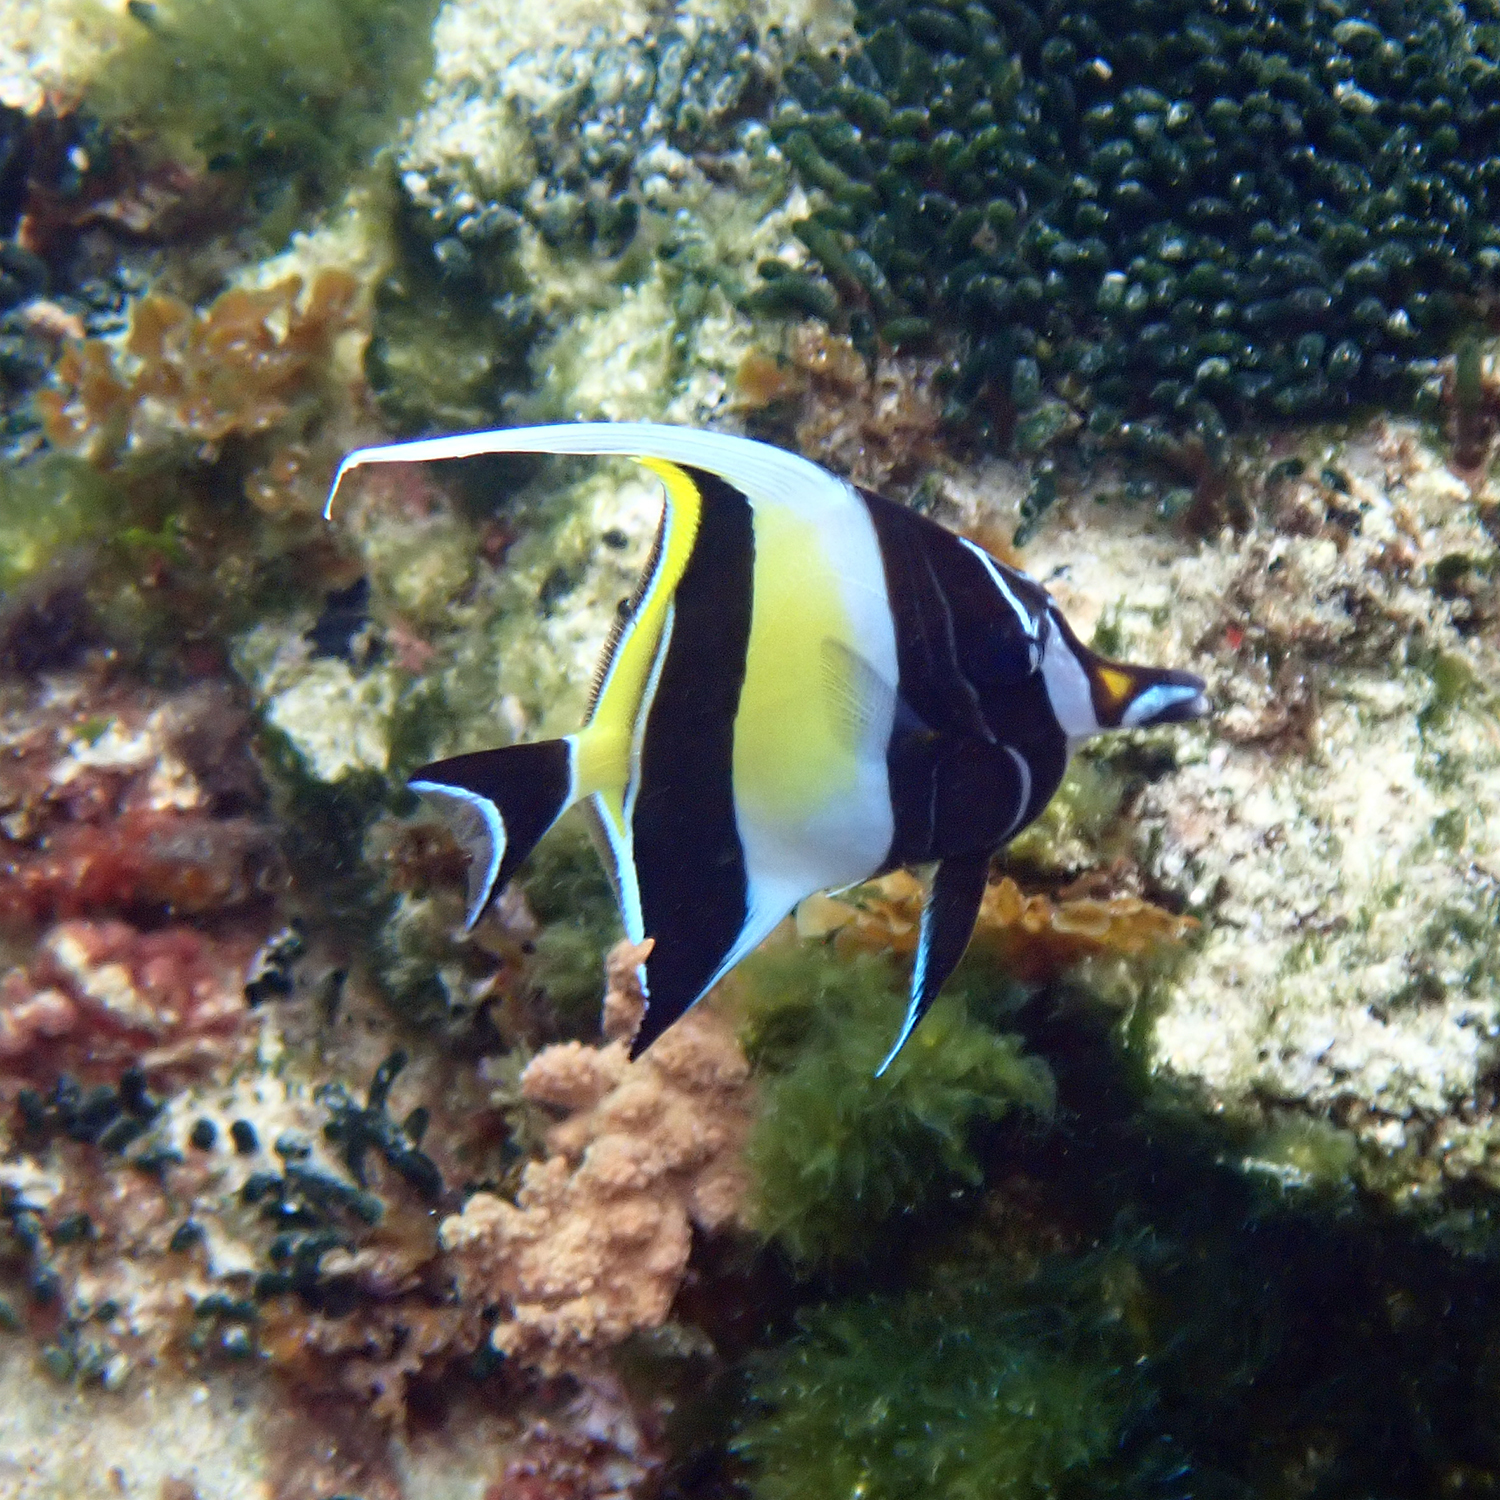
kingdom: Animalia
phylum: Chordata
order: Perciformes
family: Zanclidae
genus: Zanclus
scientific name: Zanclus cornutus
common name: Moorish idol
